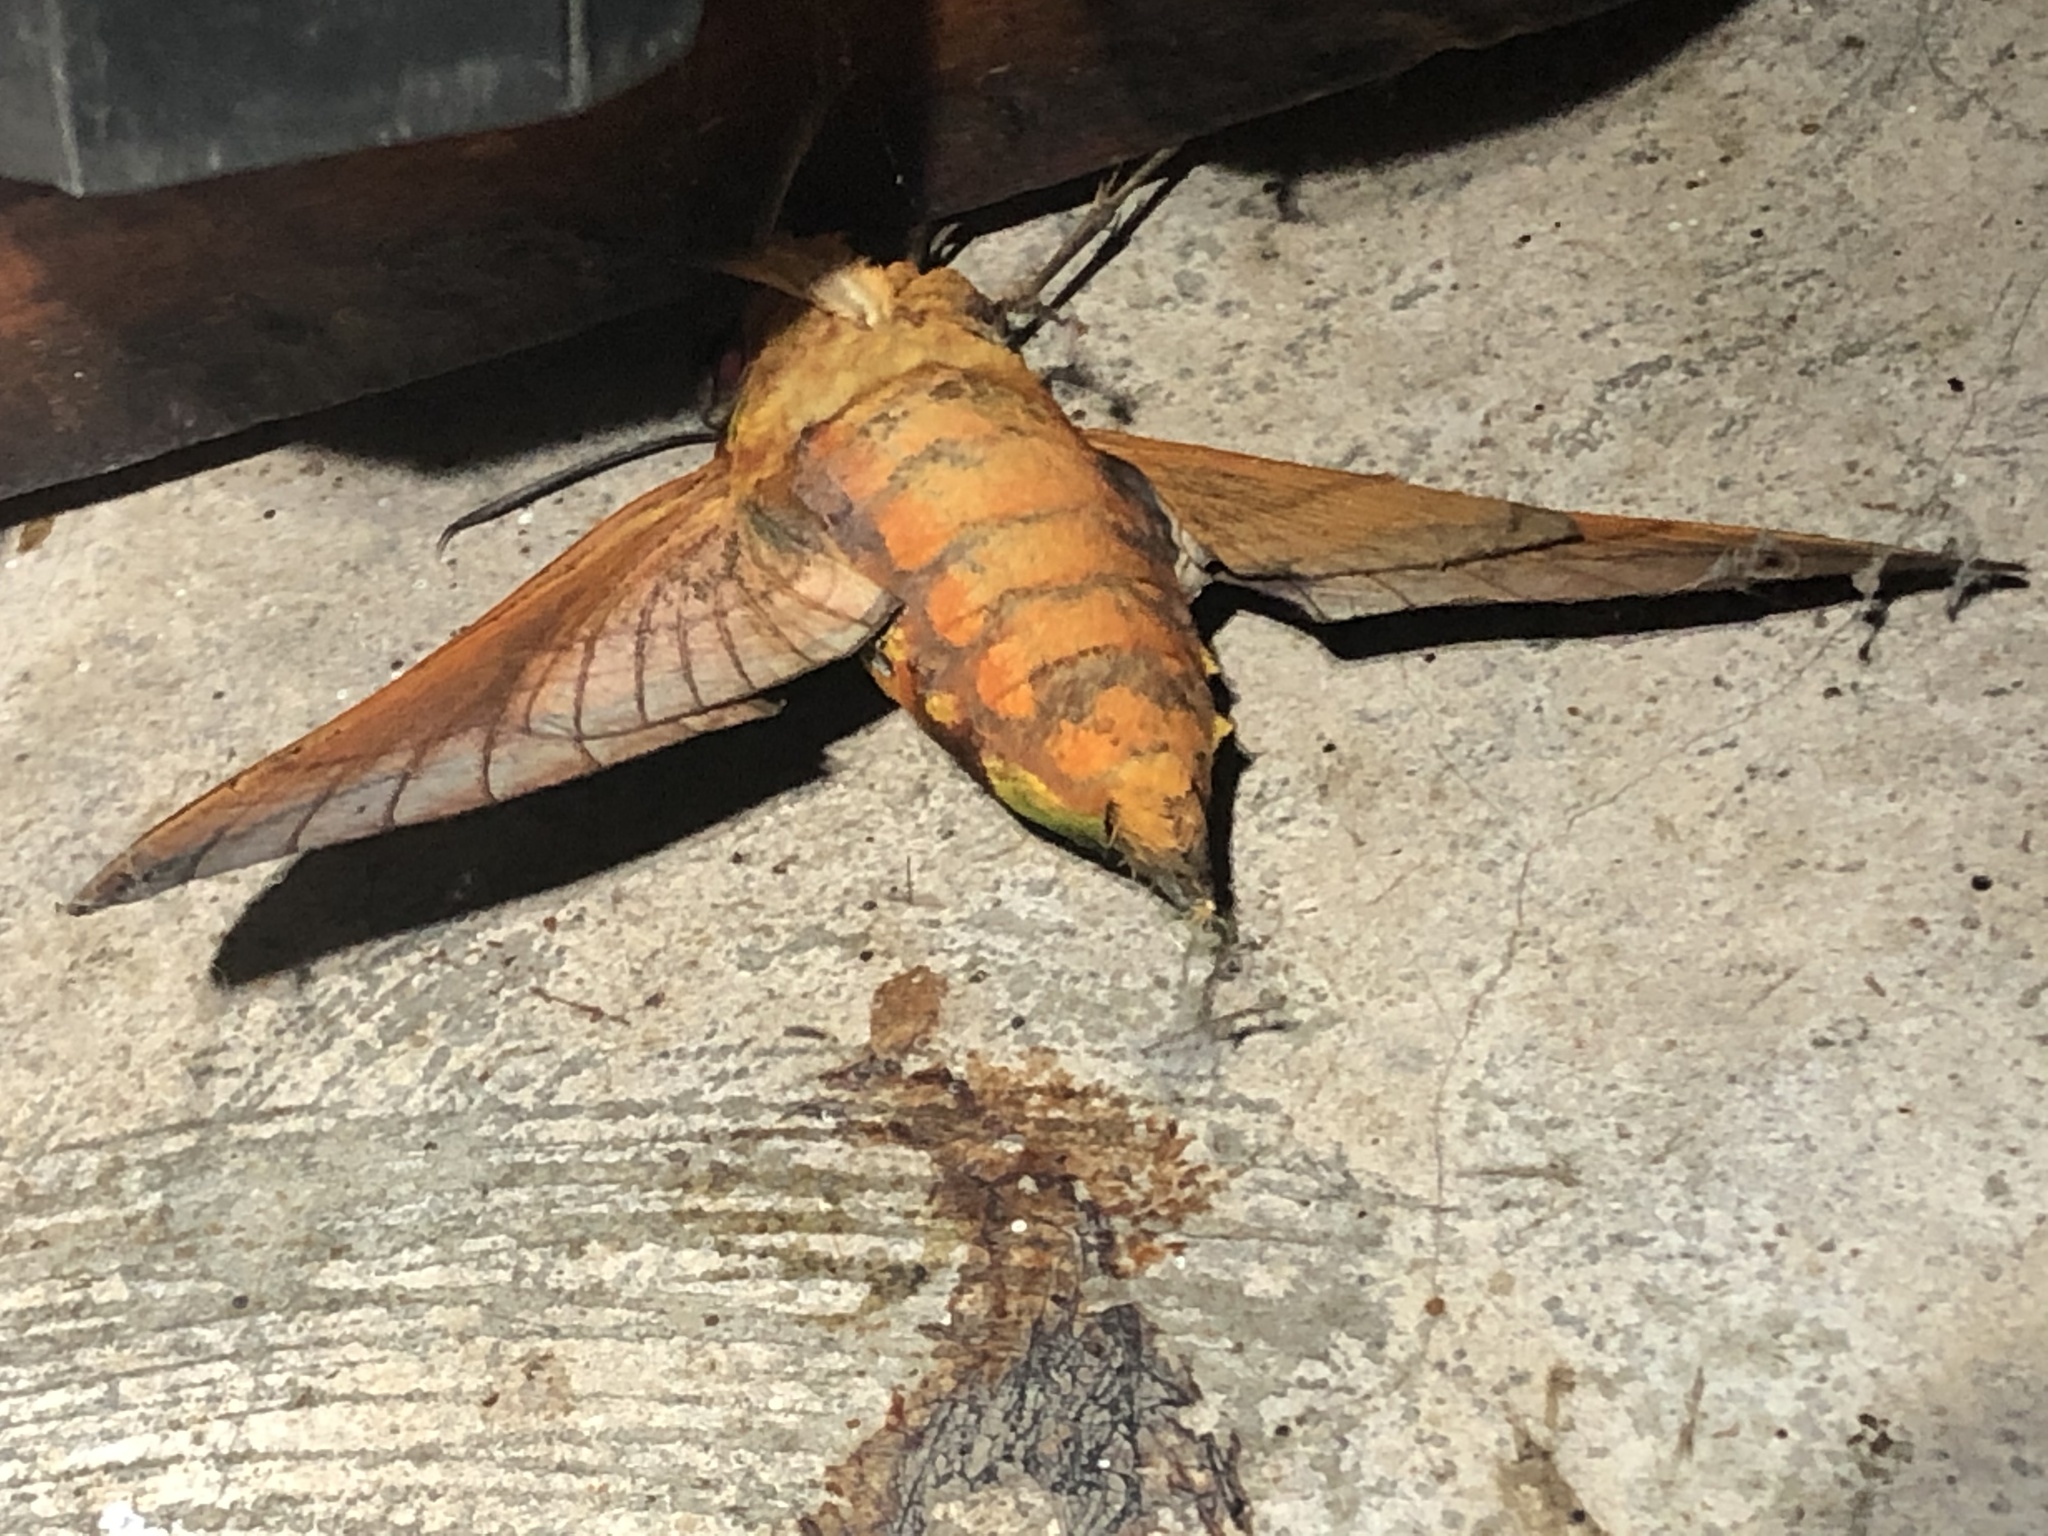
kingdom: Animalia
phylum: Arthropoda
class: Insecta
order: Lepidoptera
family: Sphingidae
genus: Oryba
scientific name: Oryba kadeni
